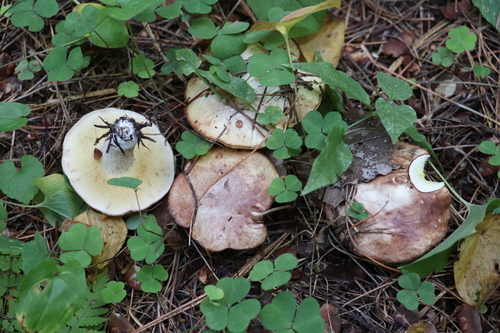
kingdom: Fungi
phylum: Basidiomycota
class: Agaricomycetes
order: Boletales
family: Suillaceae
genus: Suillus
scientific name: Suillus placidus
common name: Slippery white bolete
